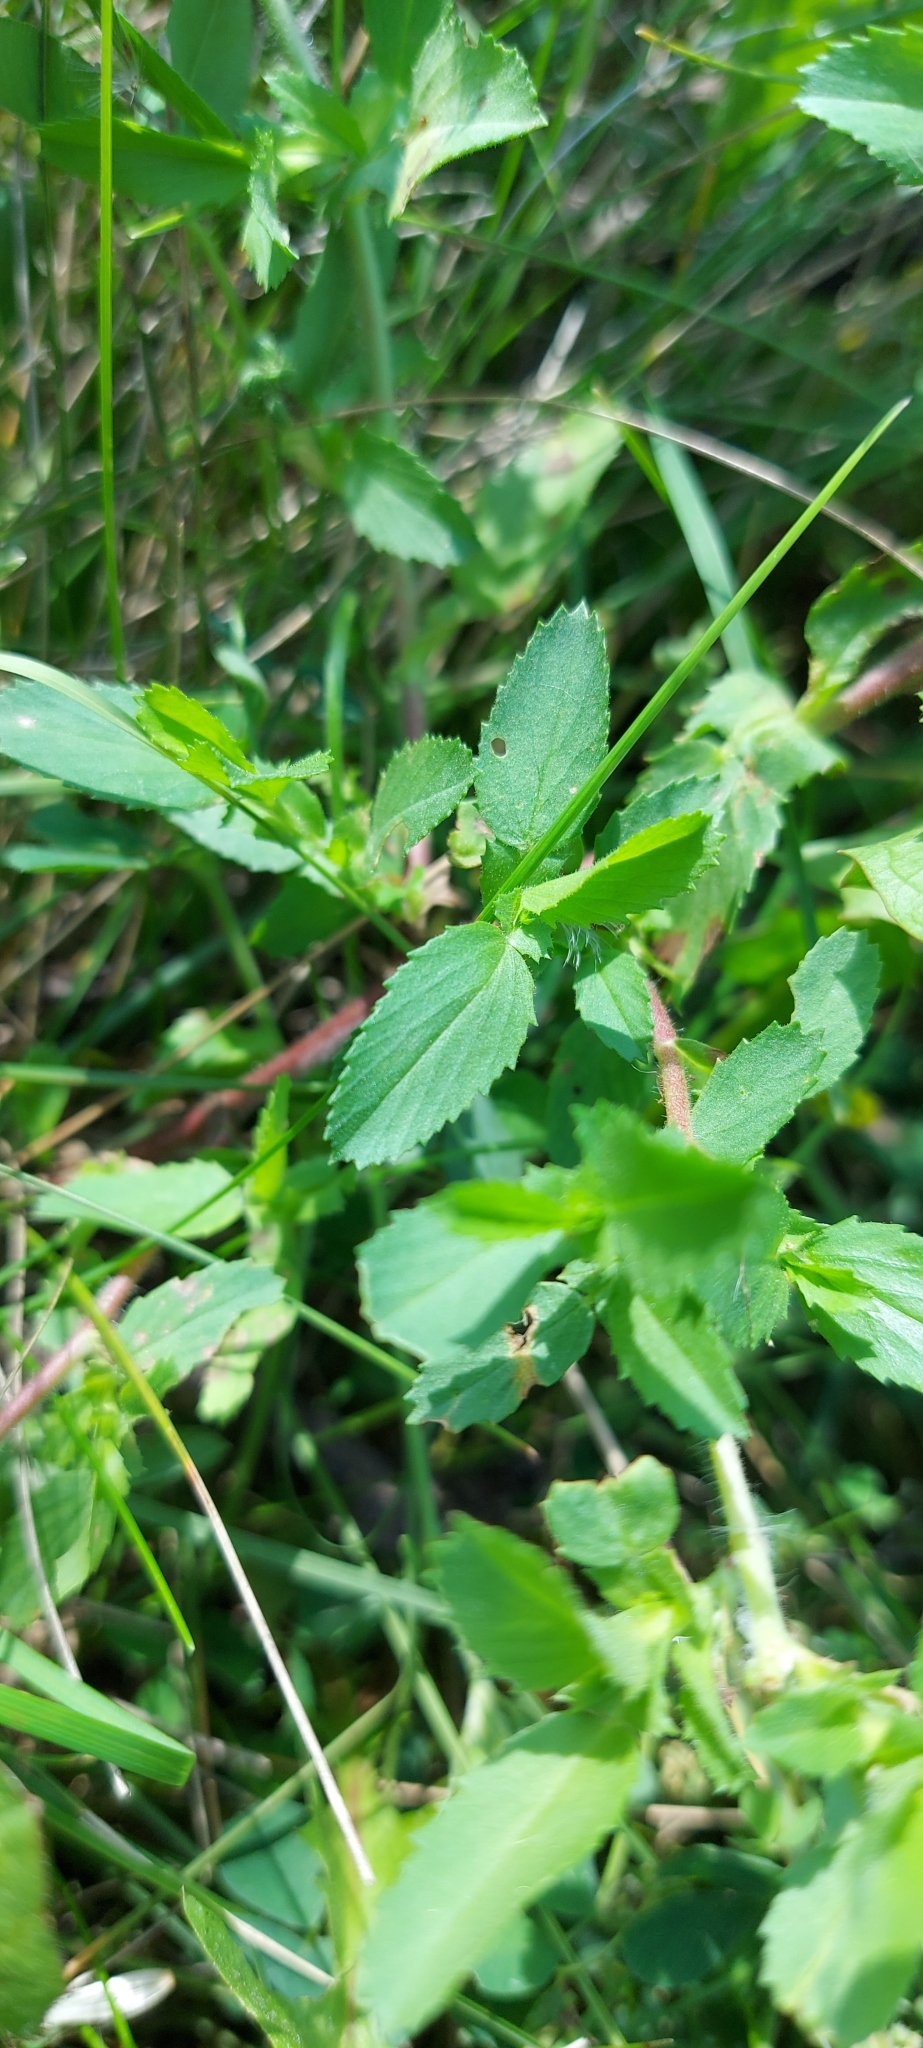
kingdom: Plantae
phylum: Tracheophyta
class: Magnoliopsida
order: Fabales
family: Fabaceae
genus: Ononis
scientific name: Ononis arvensis
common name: Field restharrow
